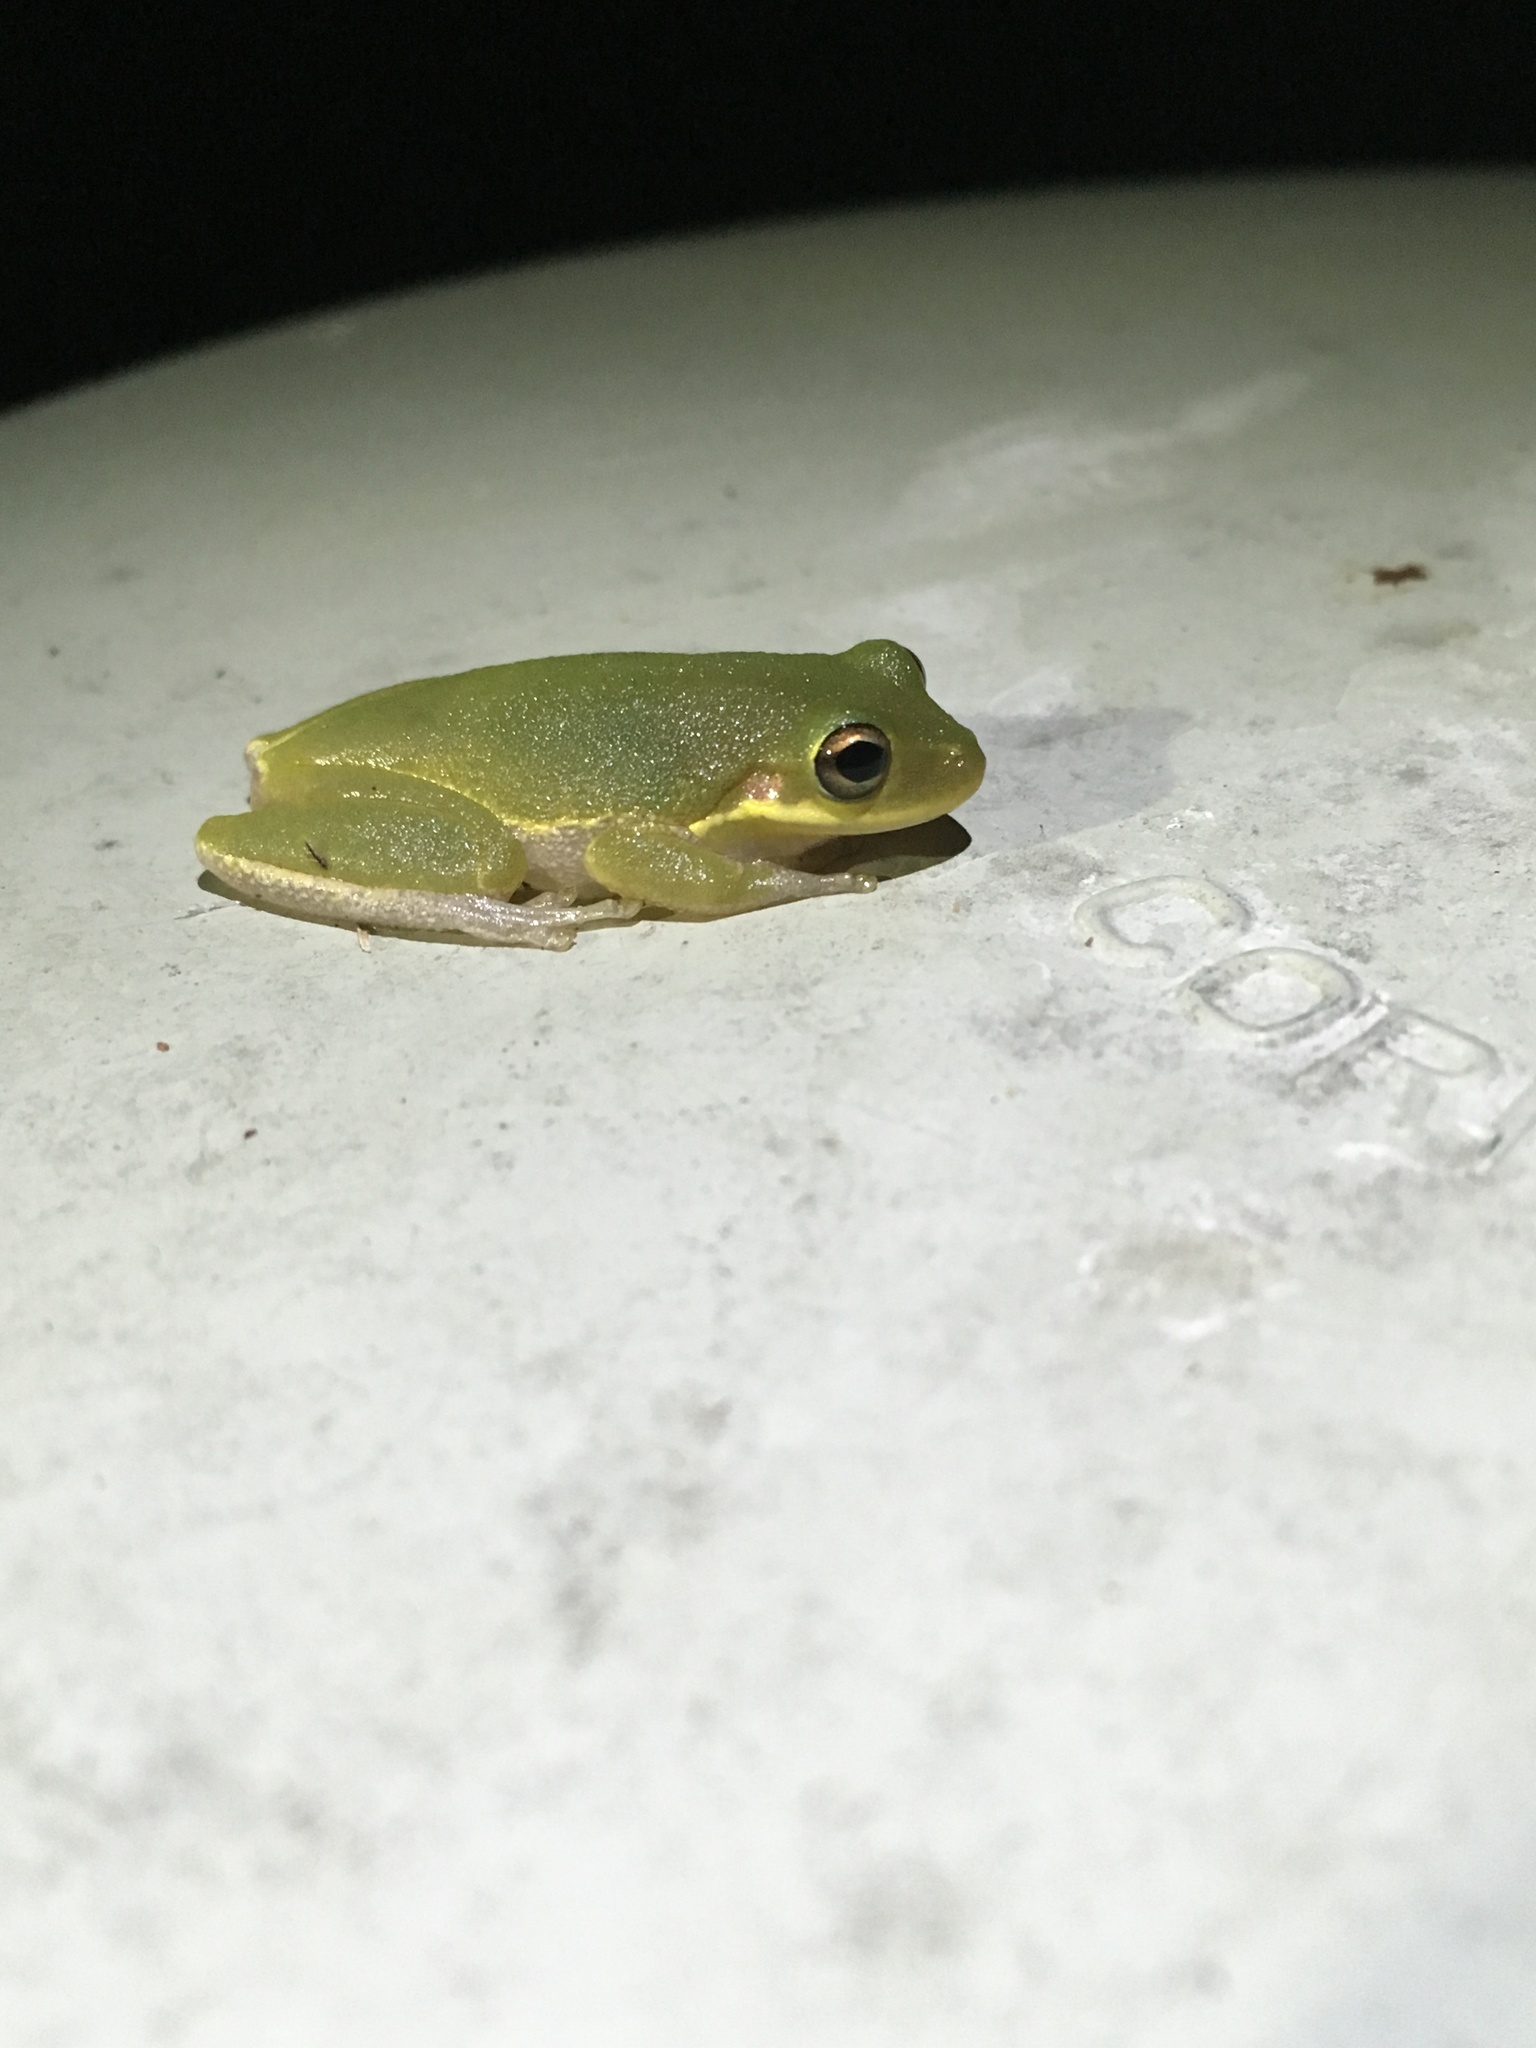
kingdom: Animalia
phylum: Chordata
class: Amphibia
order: Anura
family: Hylidae
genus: Dryophytes
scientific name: Dryophytes squirellus
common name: Squirrel treefrog
